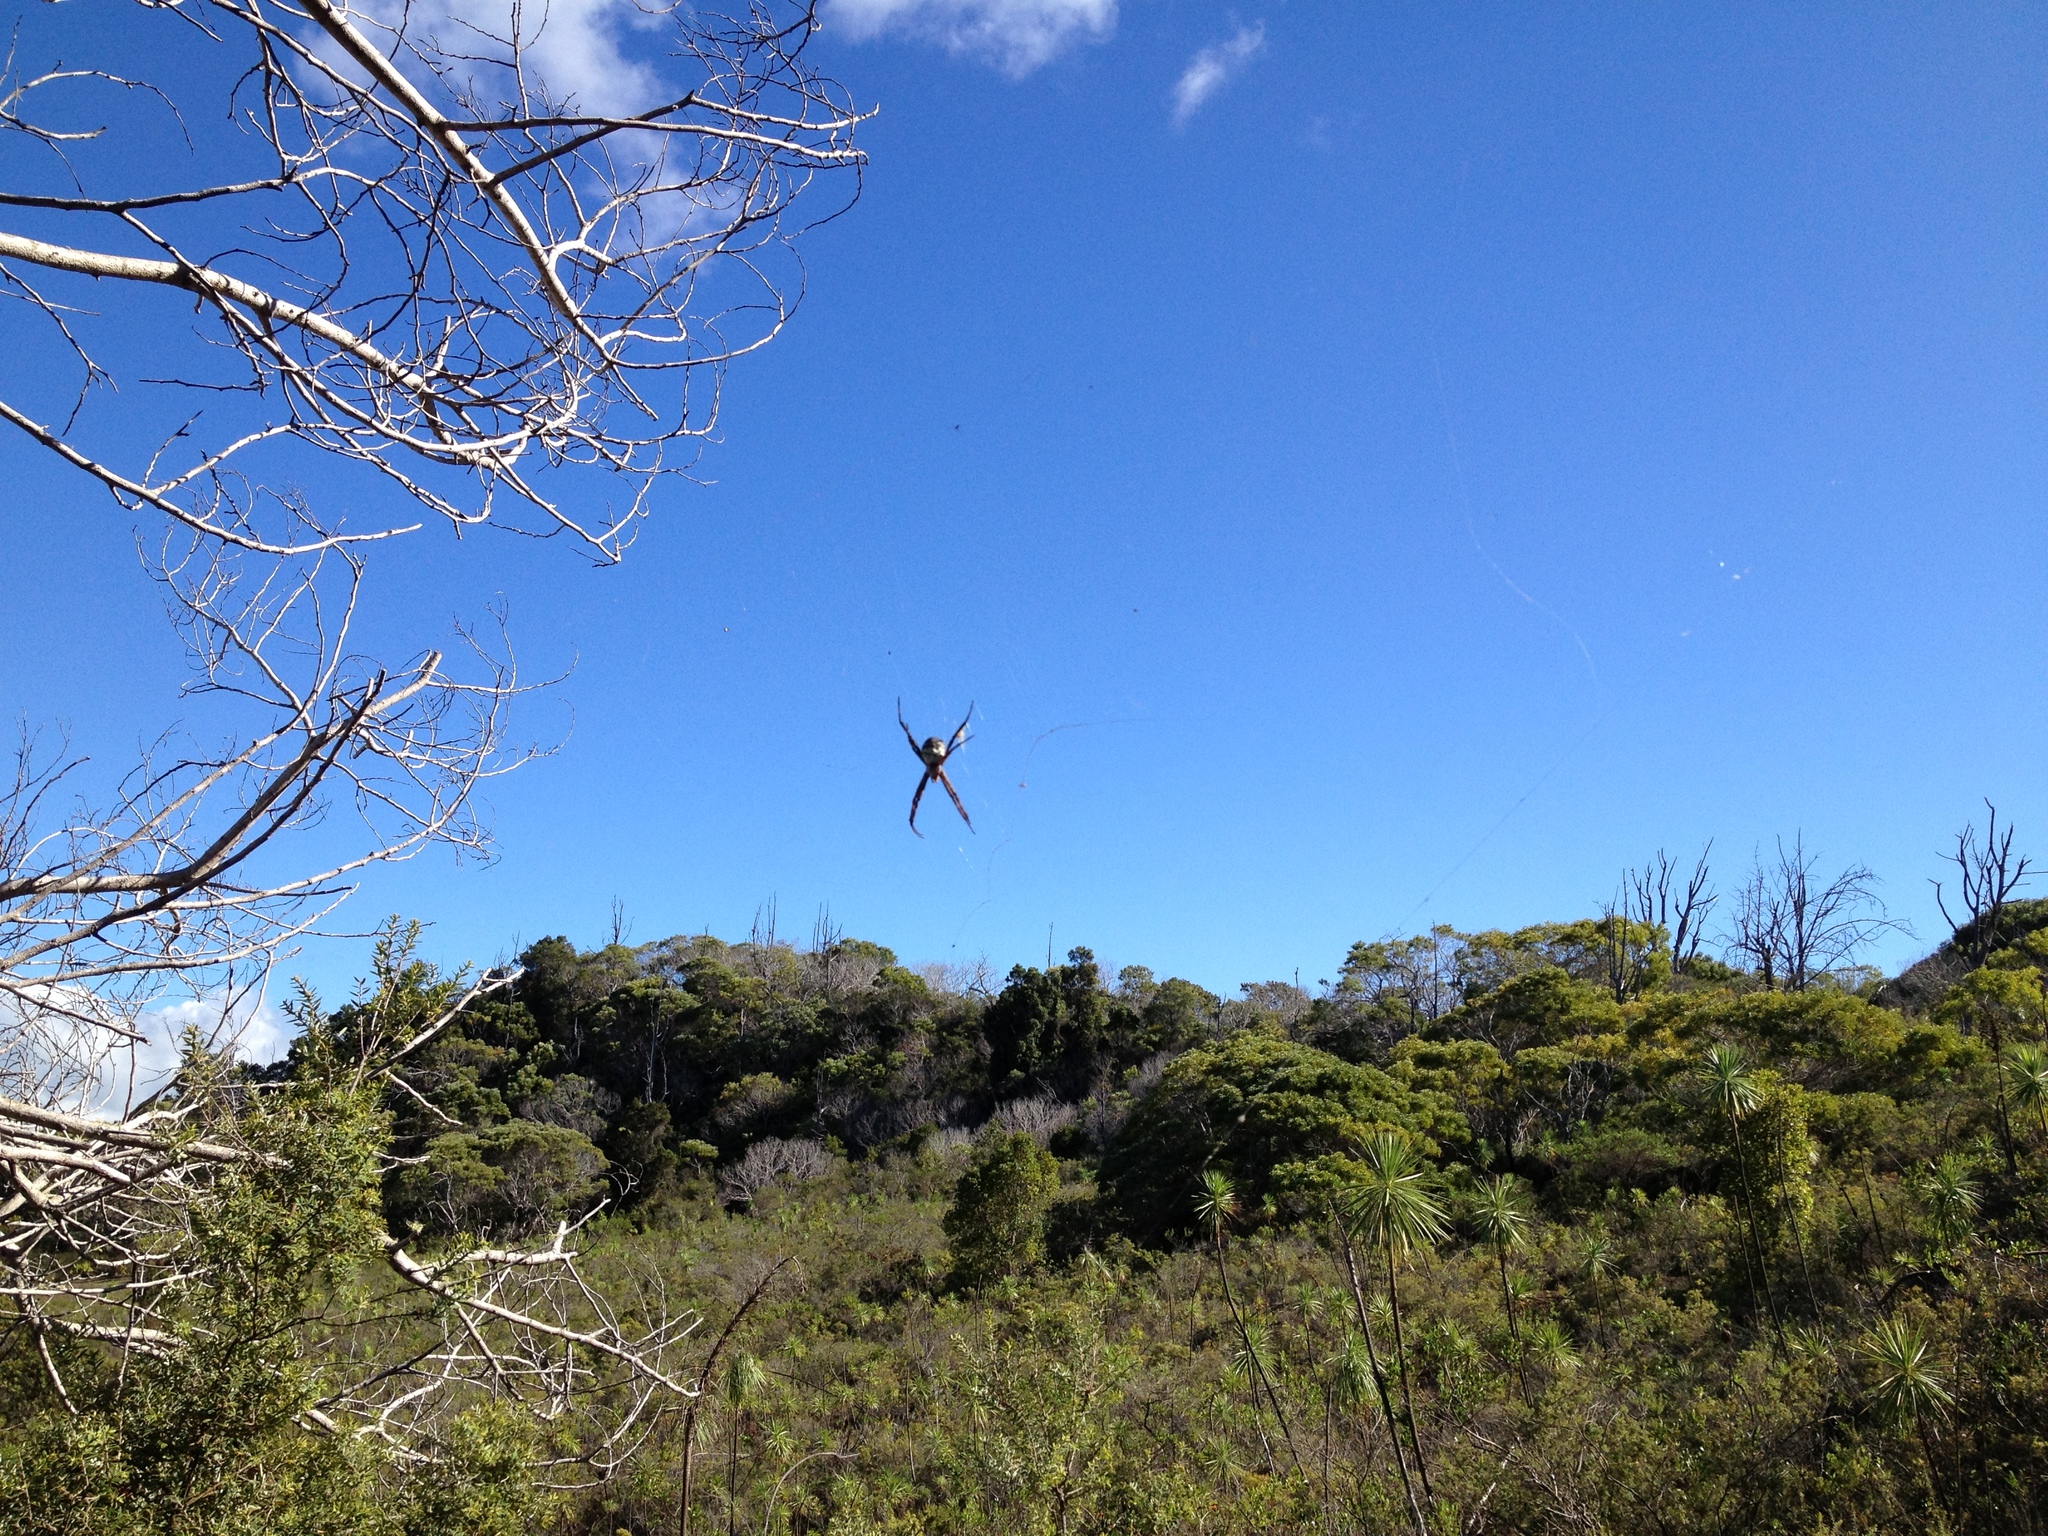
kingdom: Animalia
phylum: Arthropoda
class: Arachnida
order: Araneae
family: Araneidae
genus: Argiope
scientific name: Argiope trifasciata
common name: Banded garden spider
